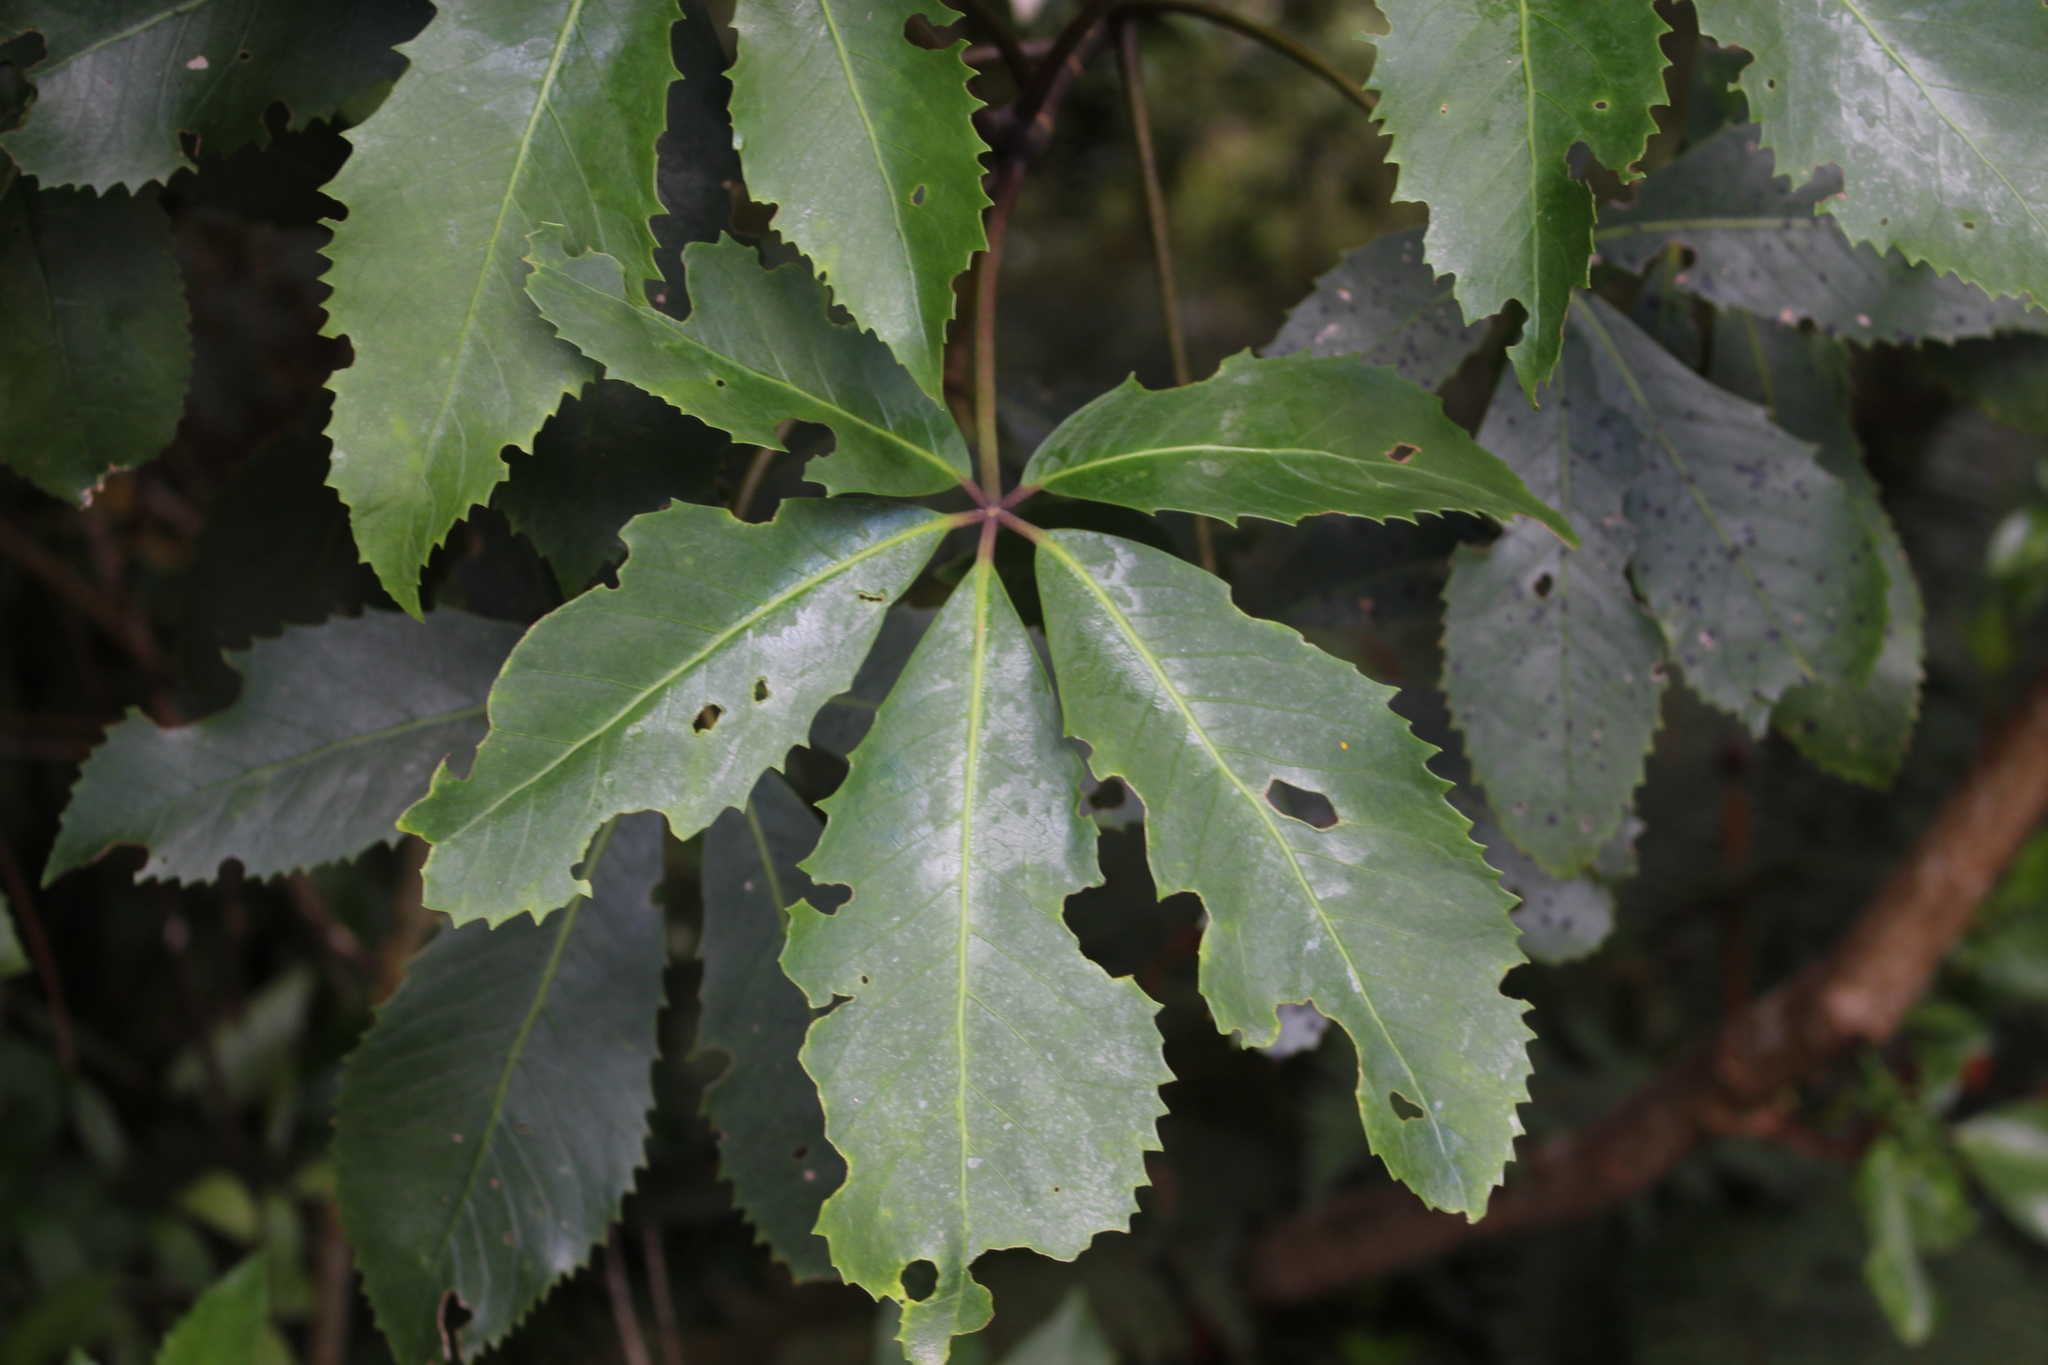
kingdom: Plantae
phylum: Tracheophyta
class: Magnoliopsida
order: Apiales
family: Araliaceae
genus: Neopanax
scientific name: Neopanax arboreus
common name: Five-fingers
